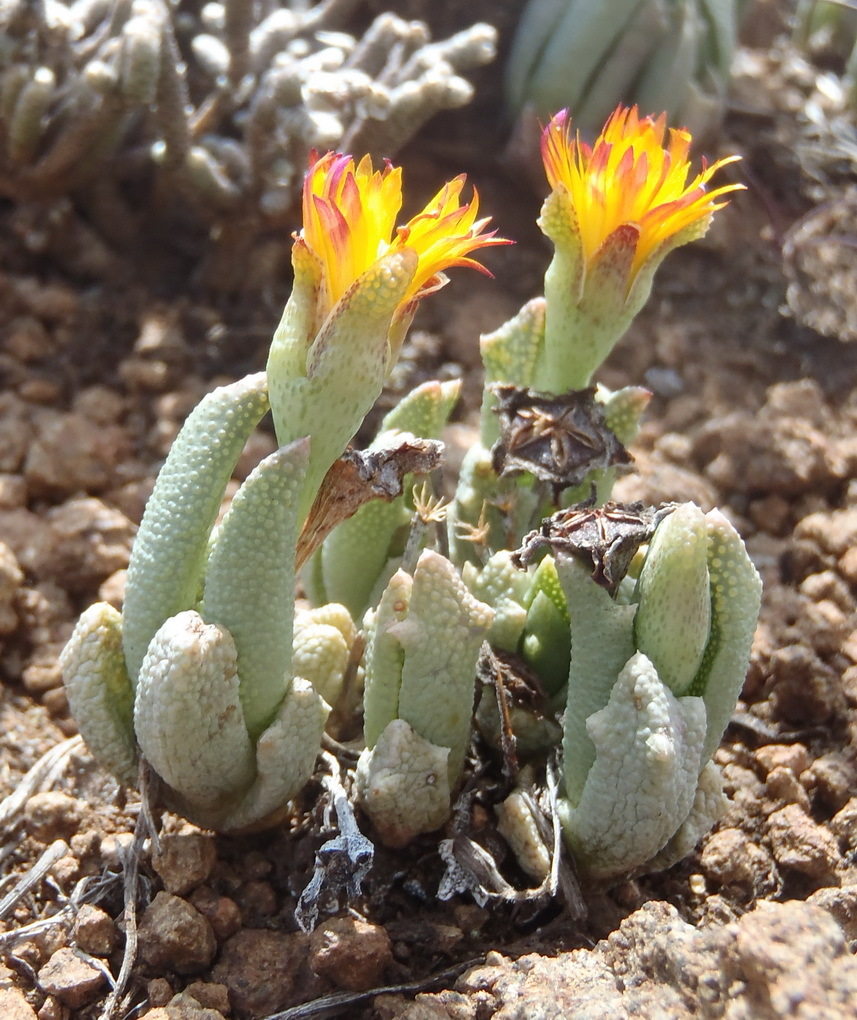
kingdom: Plantae
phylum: Tracheophyta
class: Magnoliopsida
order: Caryophyllales
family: Aizoaceae
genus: Dracophilus
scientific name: Dracophilus Chasmatophyllum musculinum
